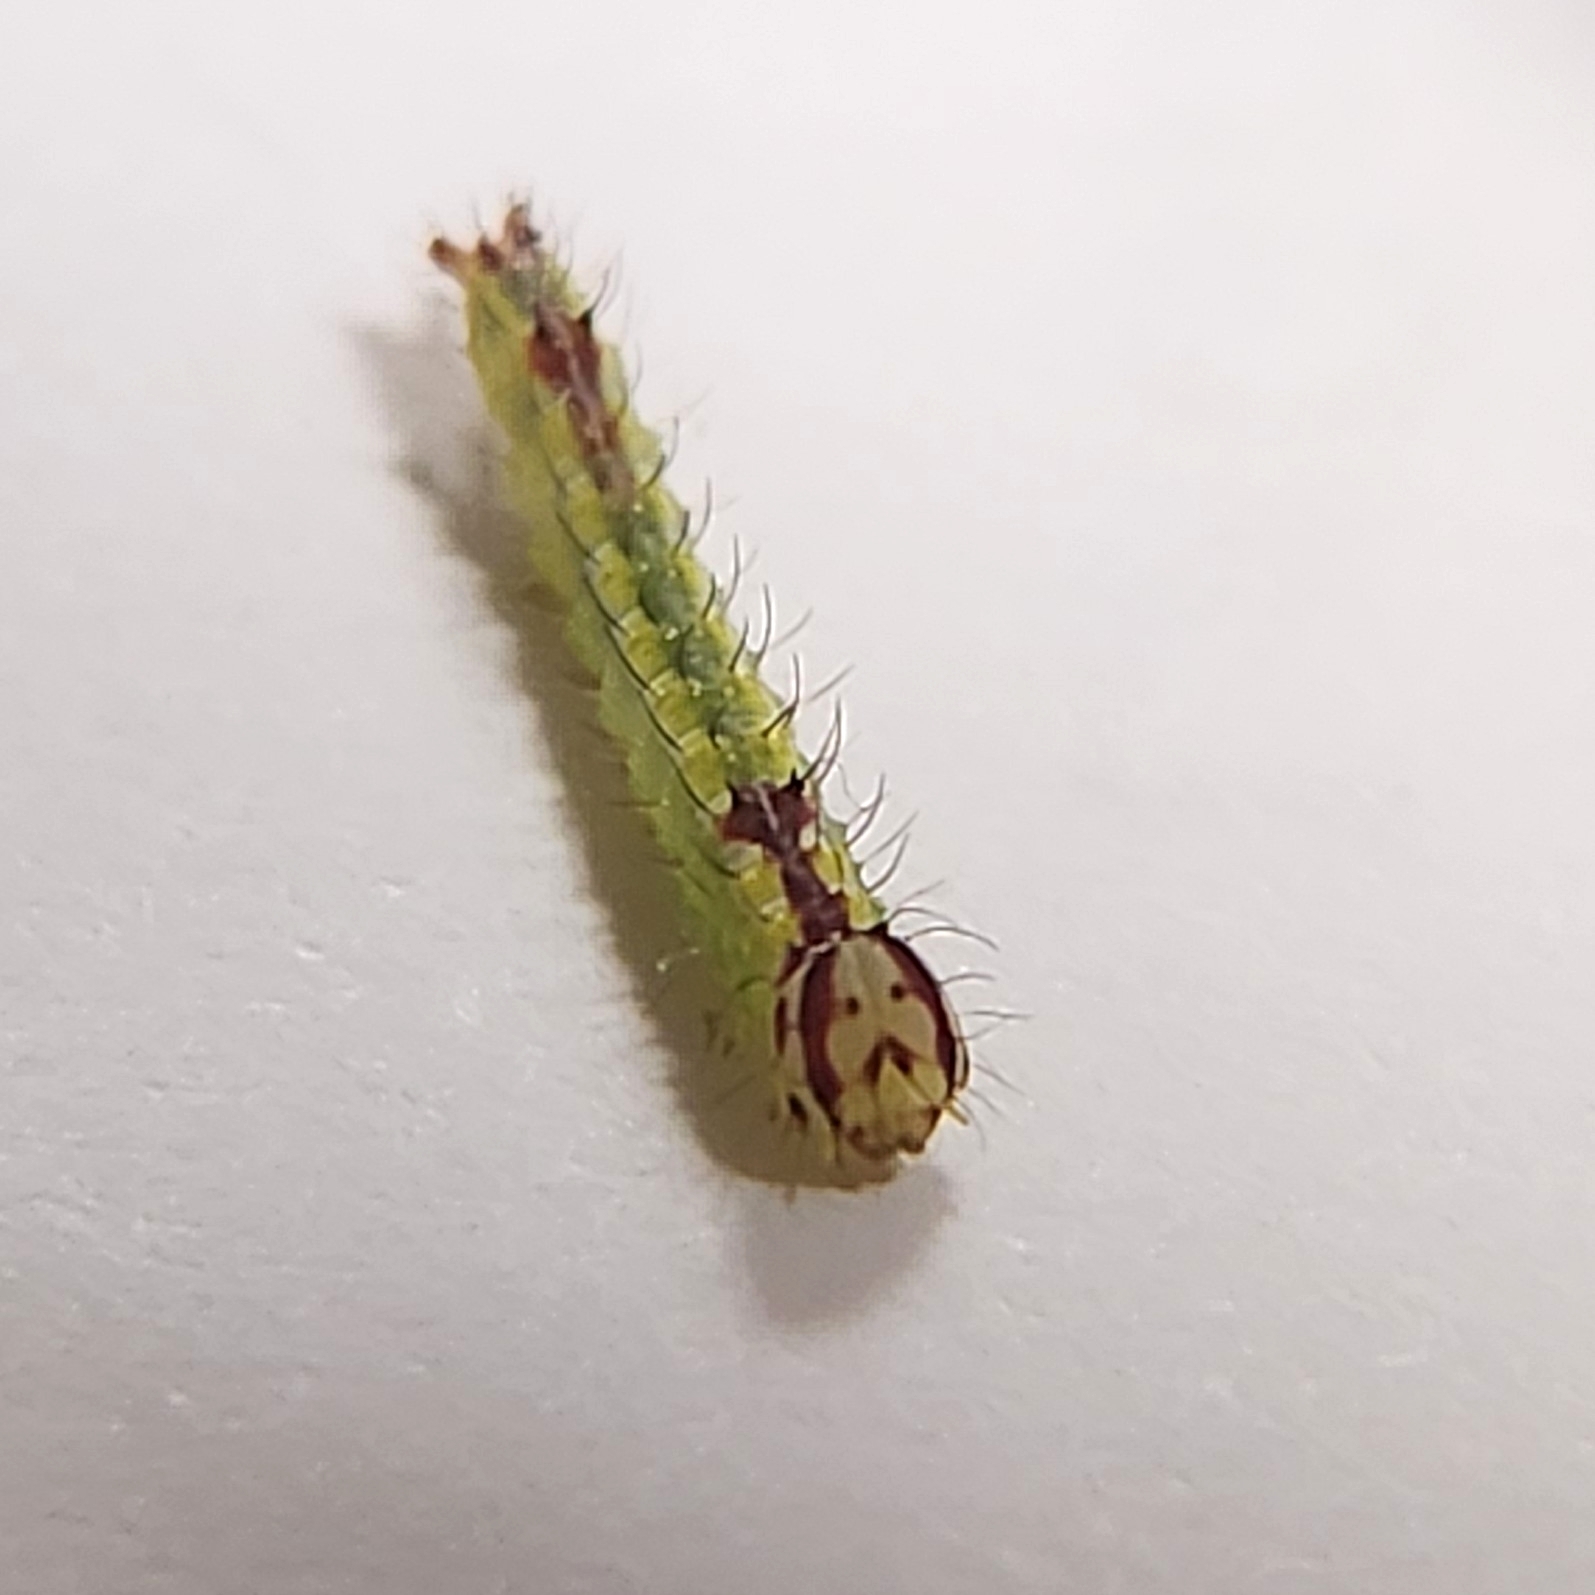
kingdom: Animalia
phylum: Arthropoda
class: Insecta
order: Lepidoptera
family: Notodontidae
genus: Lochmaeus
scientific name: Lochmaeus manteo
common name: Variable oakleaf caterpillar moth
